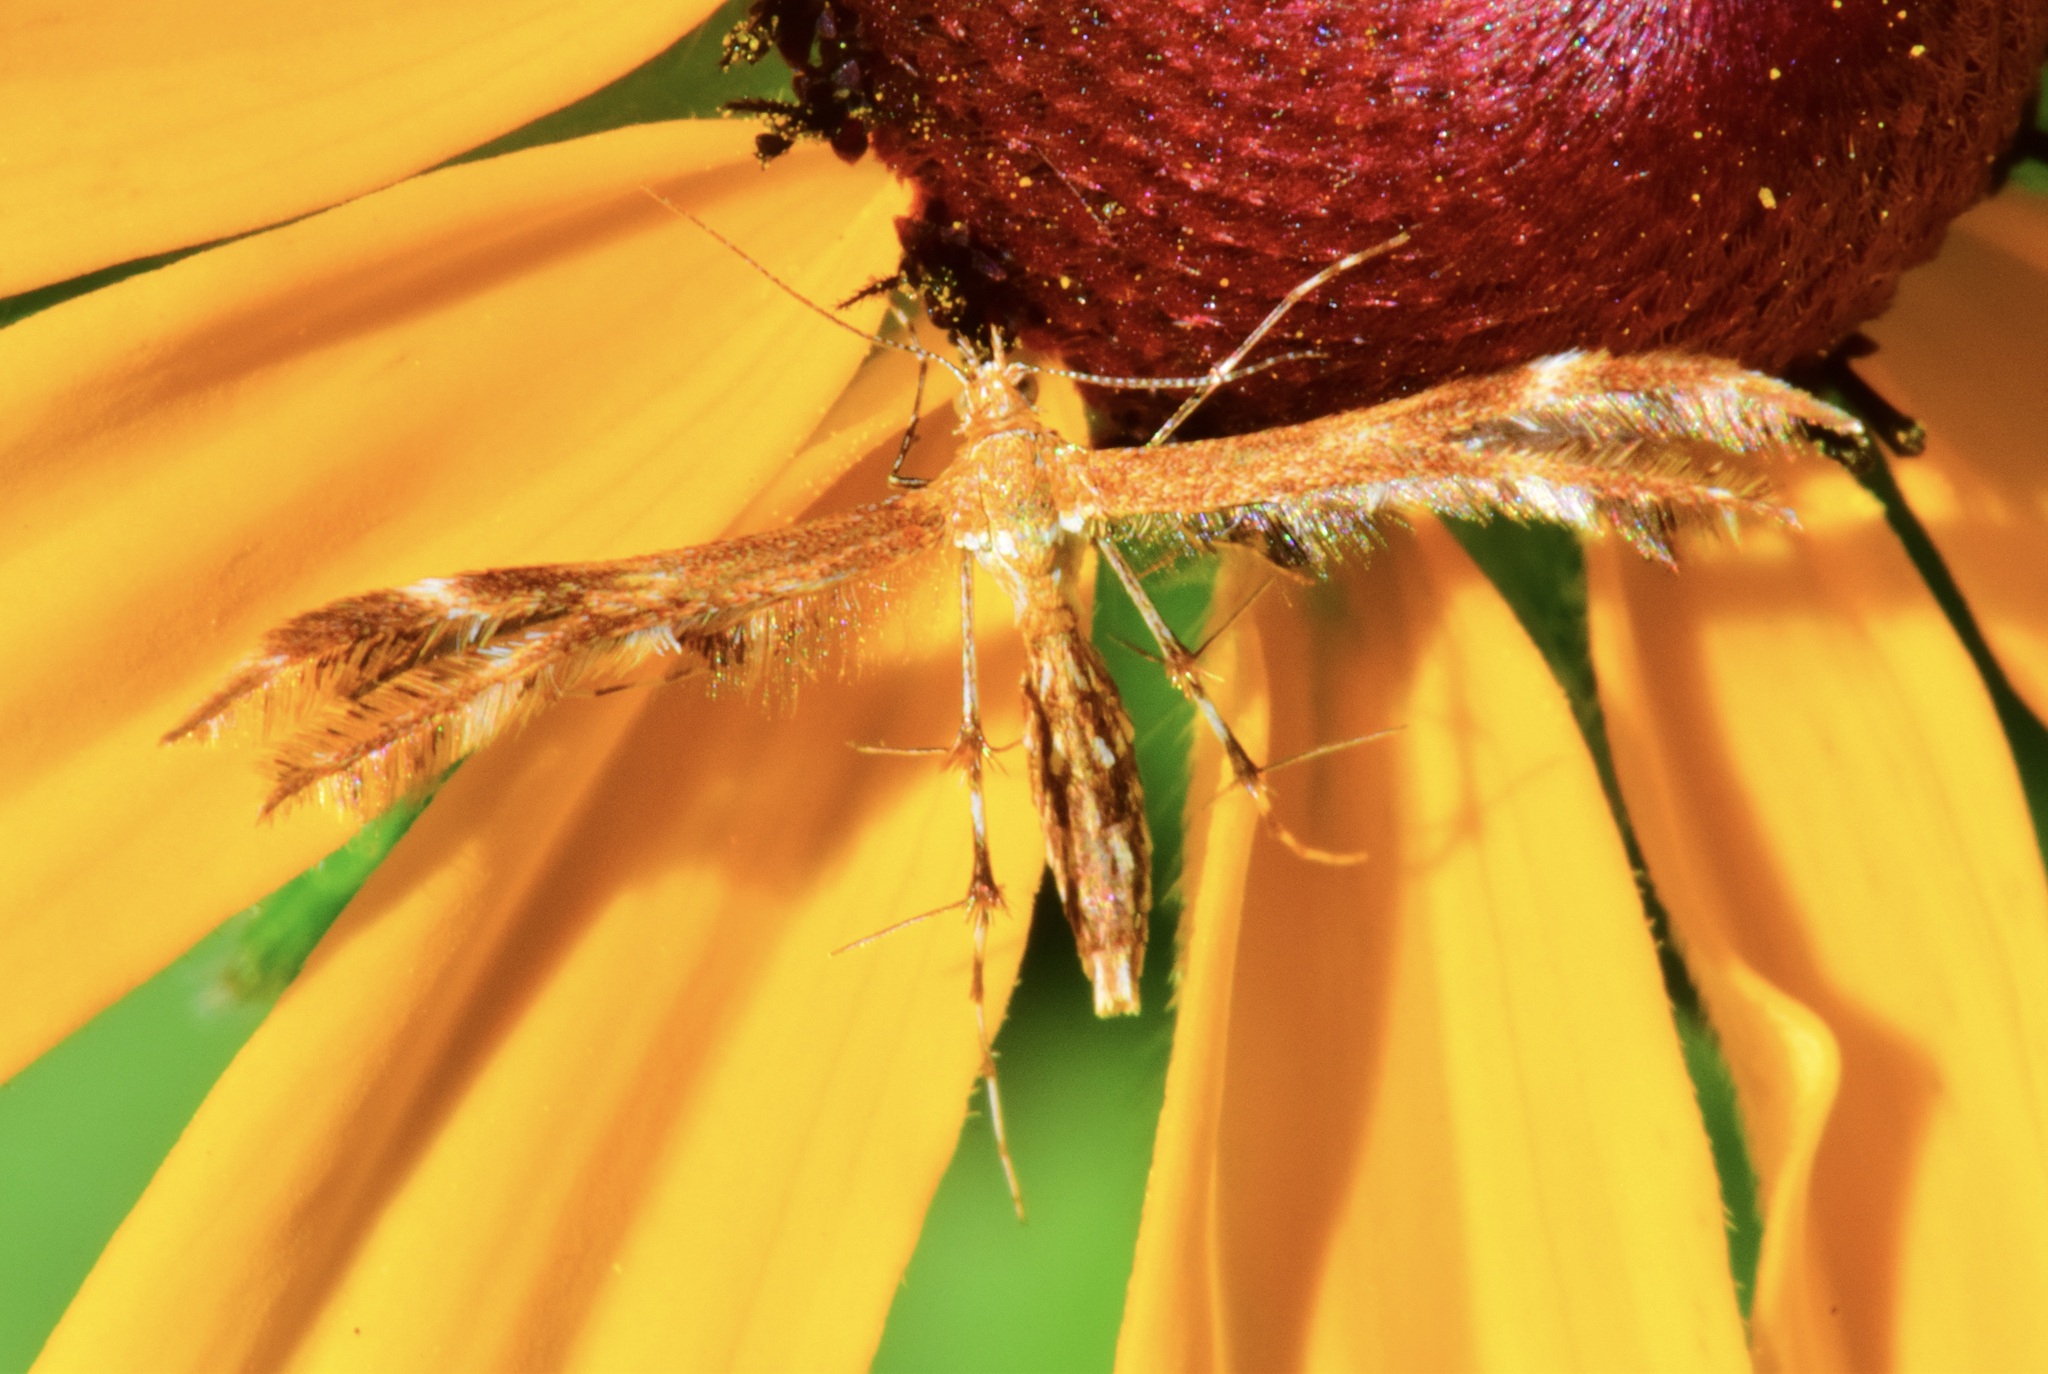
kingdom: Animalia
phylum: Arthropoda
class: Insecta
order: Lepidoptera
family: Pterophoridae
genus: Dejongia
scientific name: Dejongia lobidactylus
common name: Lobed plume moth
